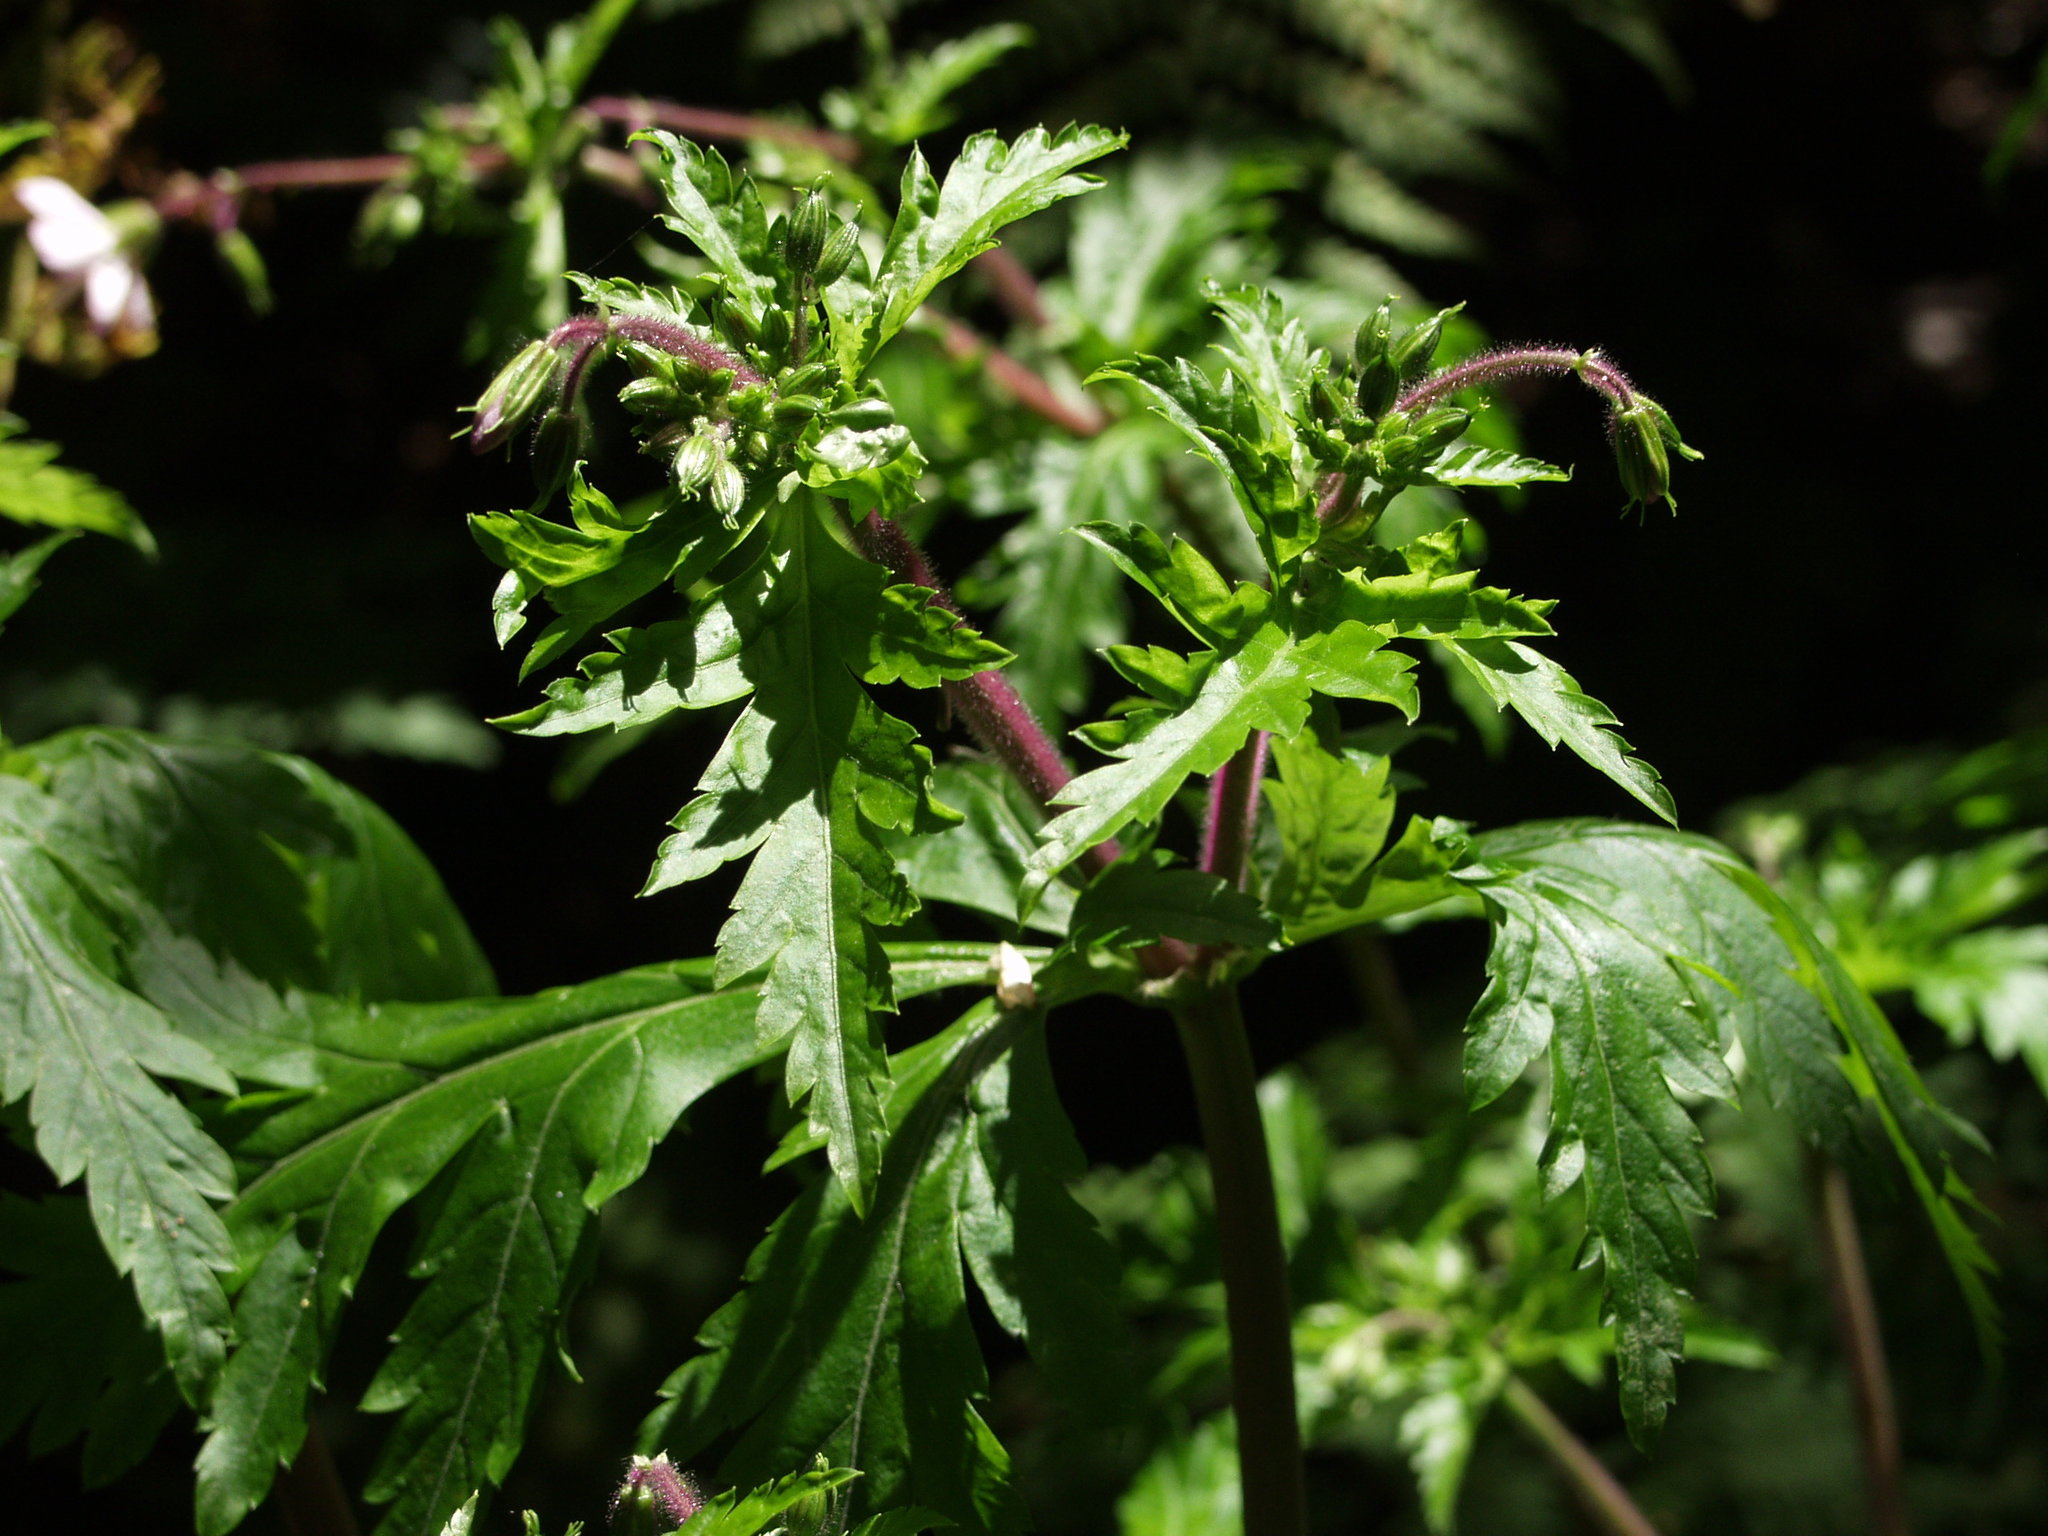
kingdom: Plantae
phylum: Tracheophyta
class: Magnoliopsida
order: Geraniales
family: Geraniaceae
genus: Geranium
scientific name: Geranium reuteri
